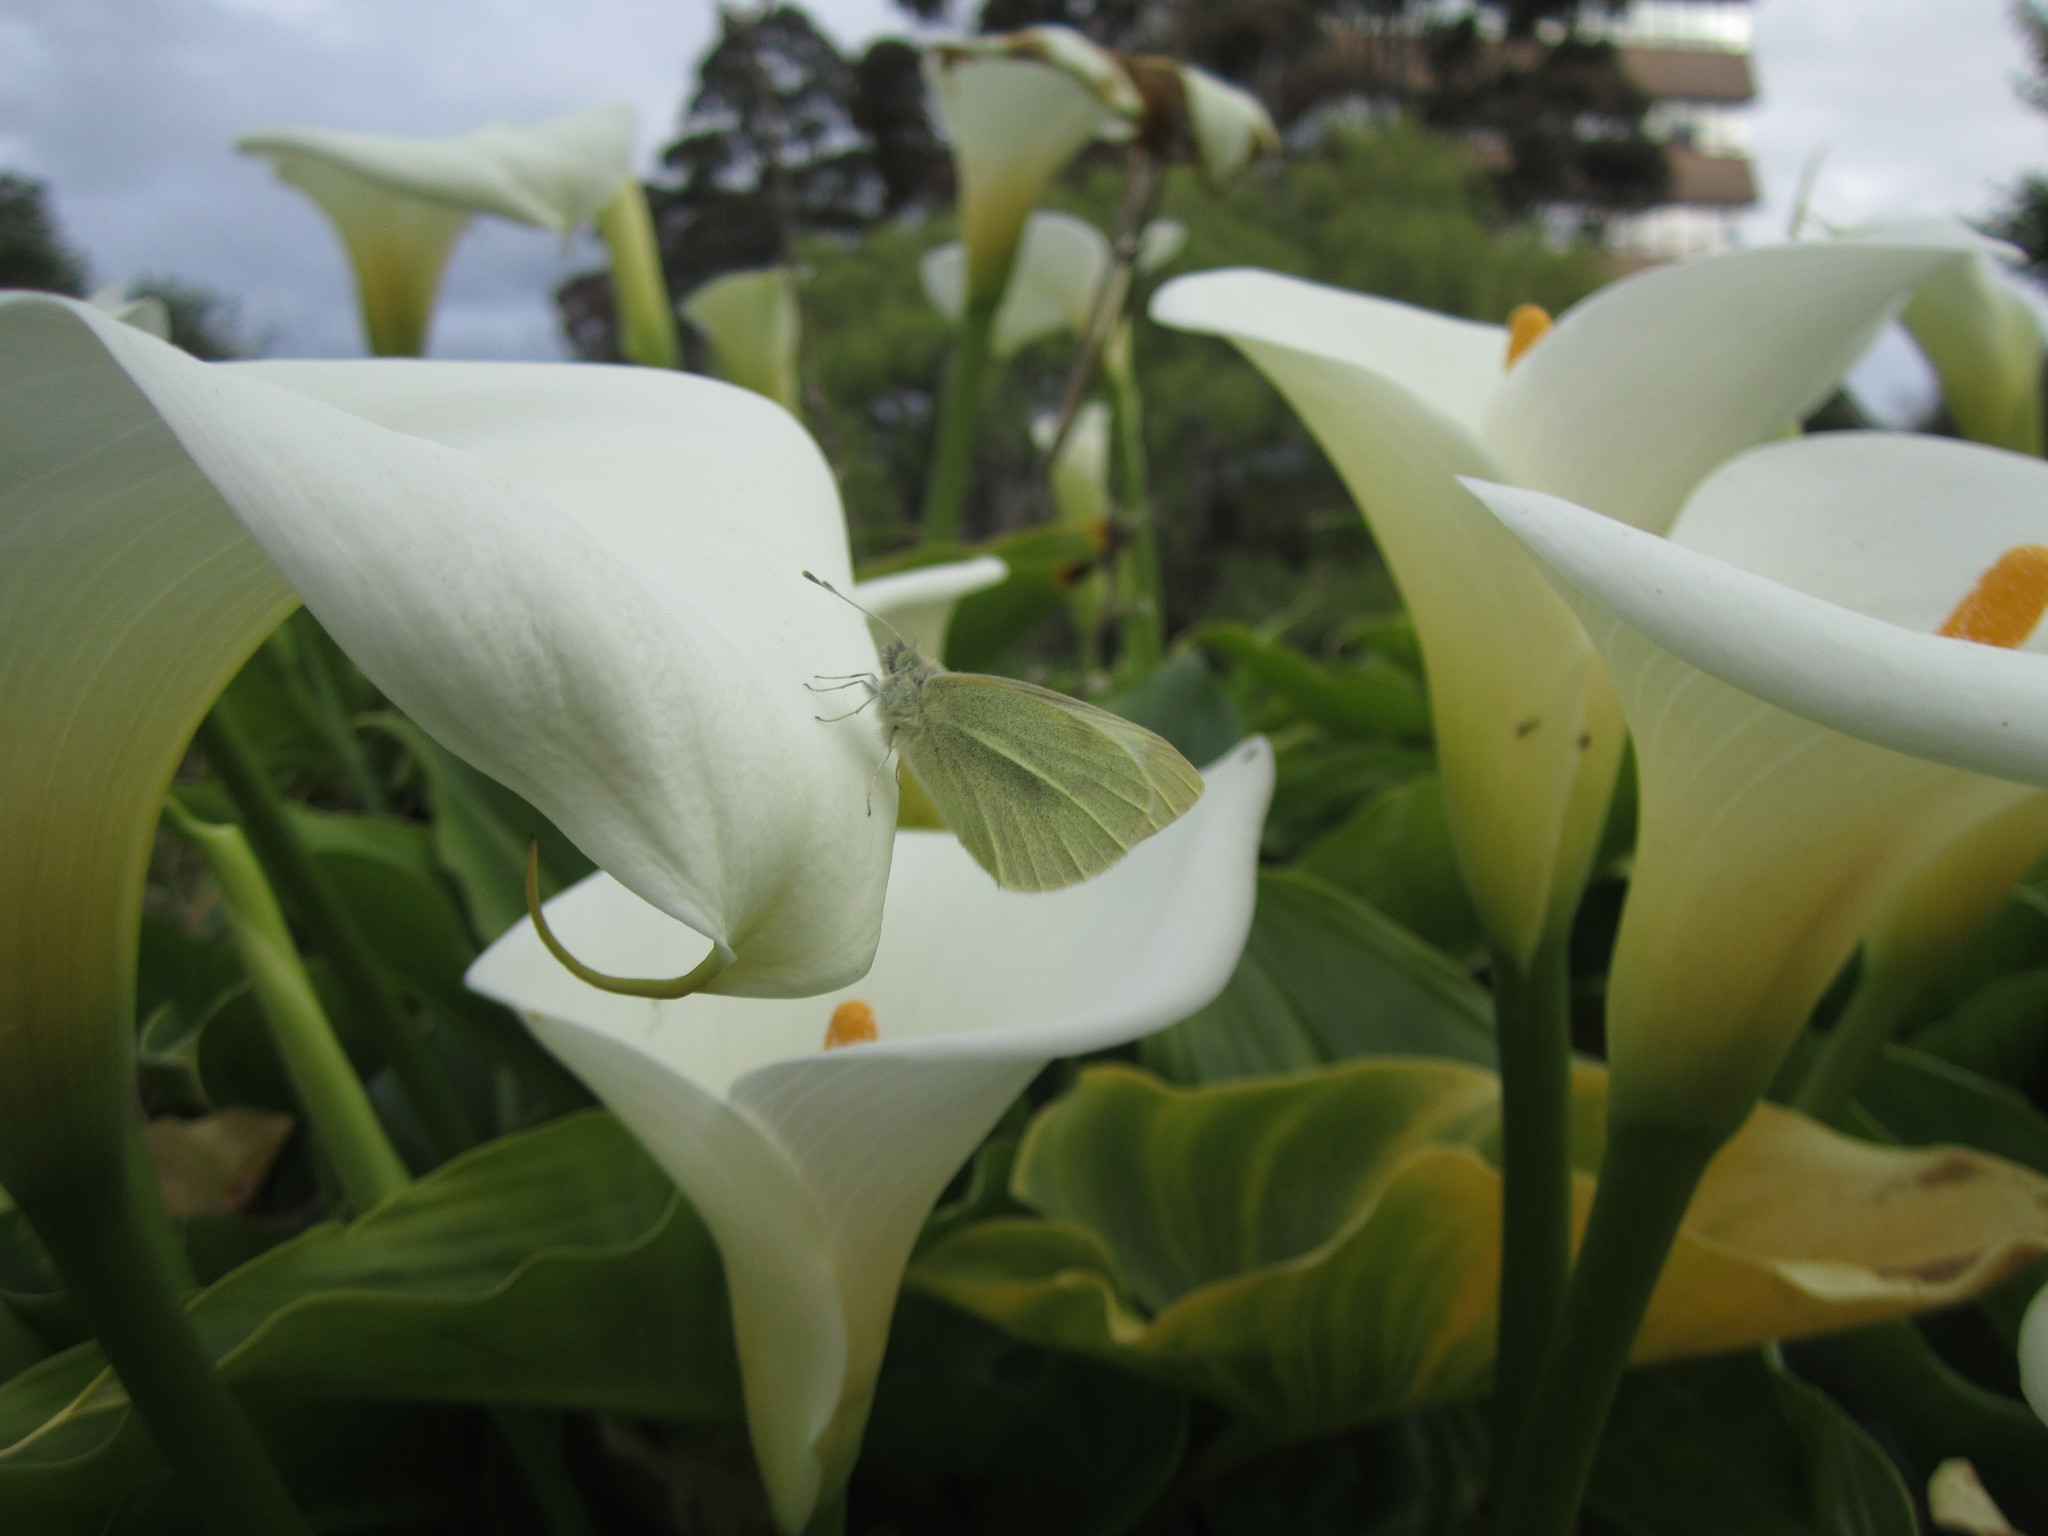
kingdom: Animalia
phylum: Arthropoda
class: Insecta
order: Lepidoptera
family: Pieridae
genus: Pieris
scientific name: Pieris rapae
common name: Small white
